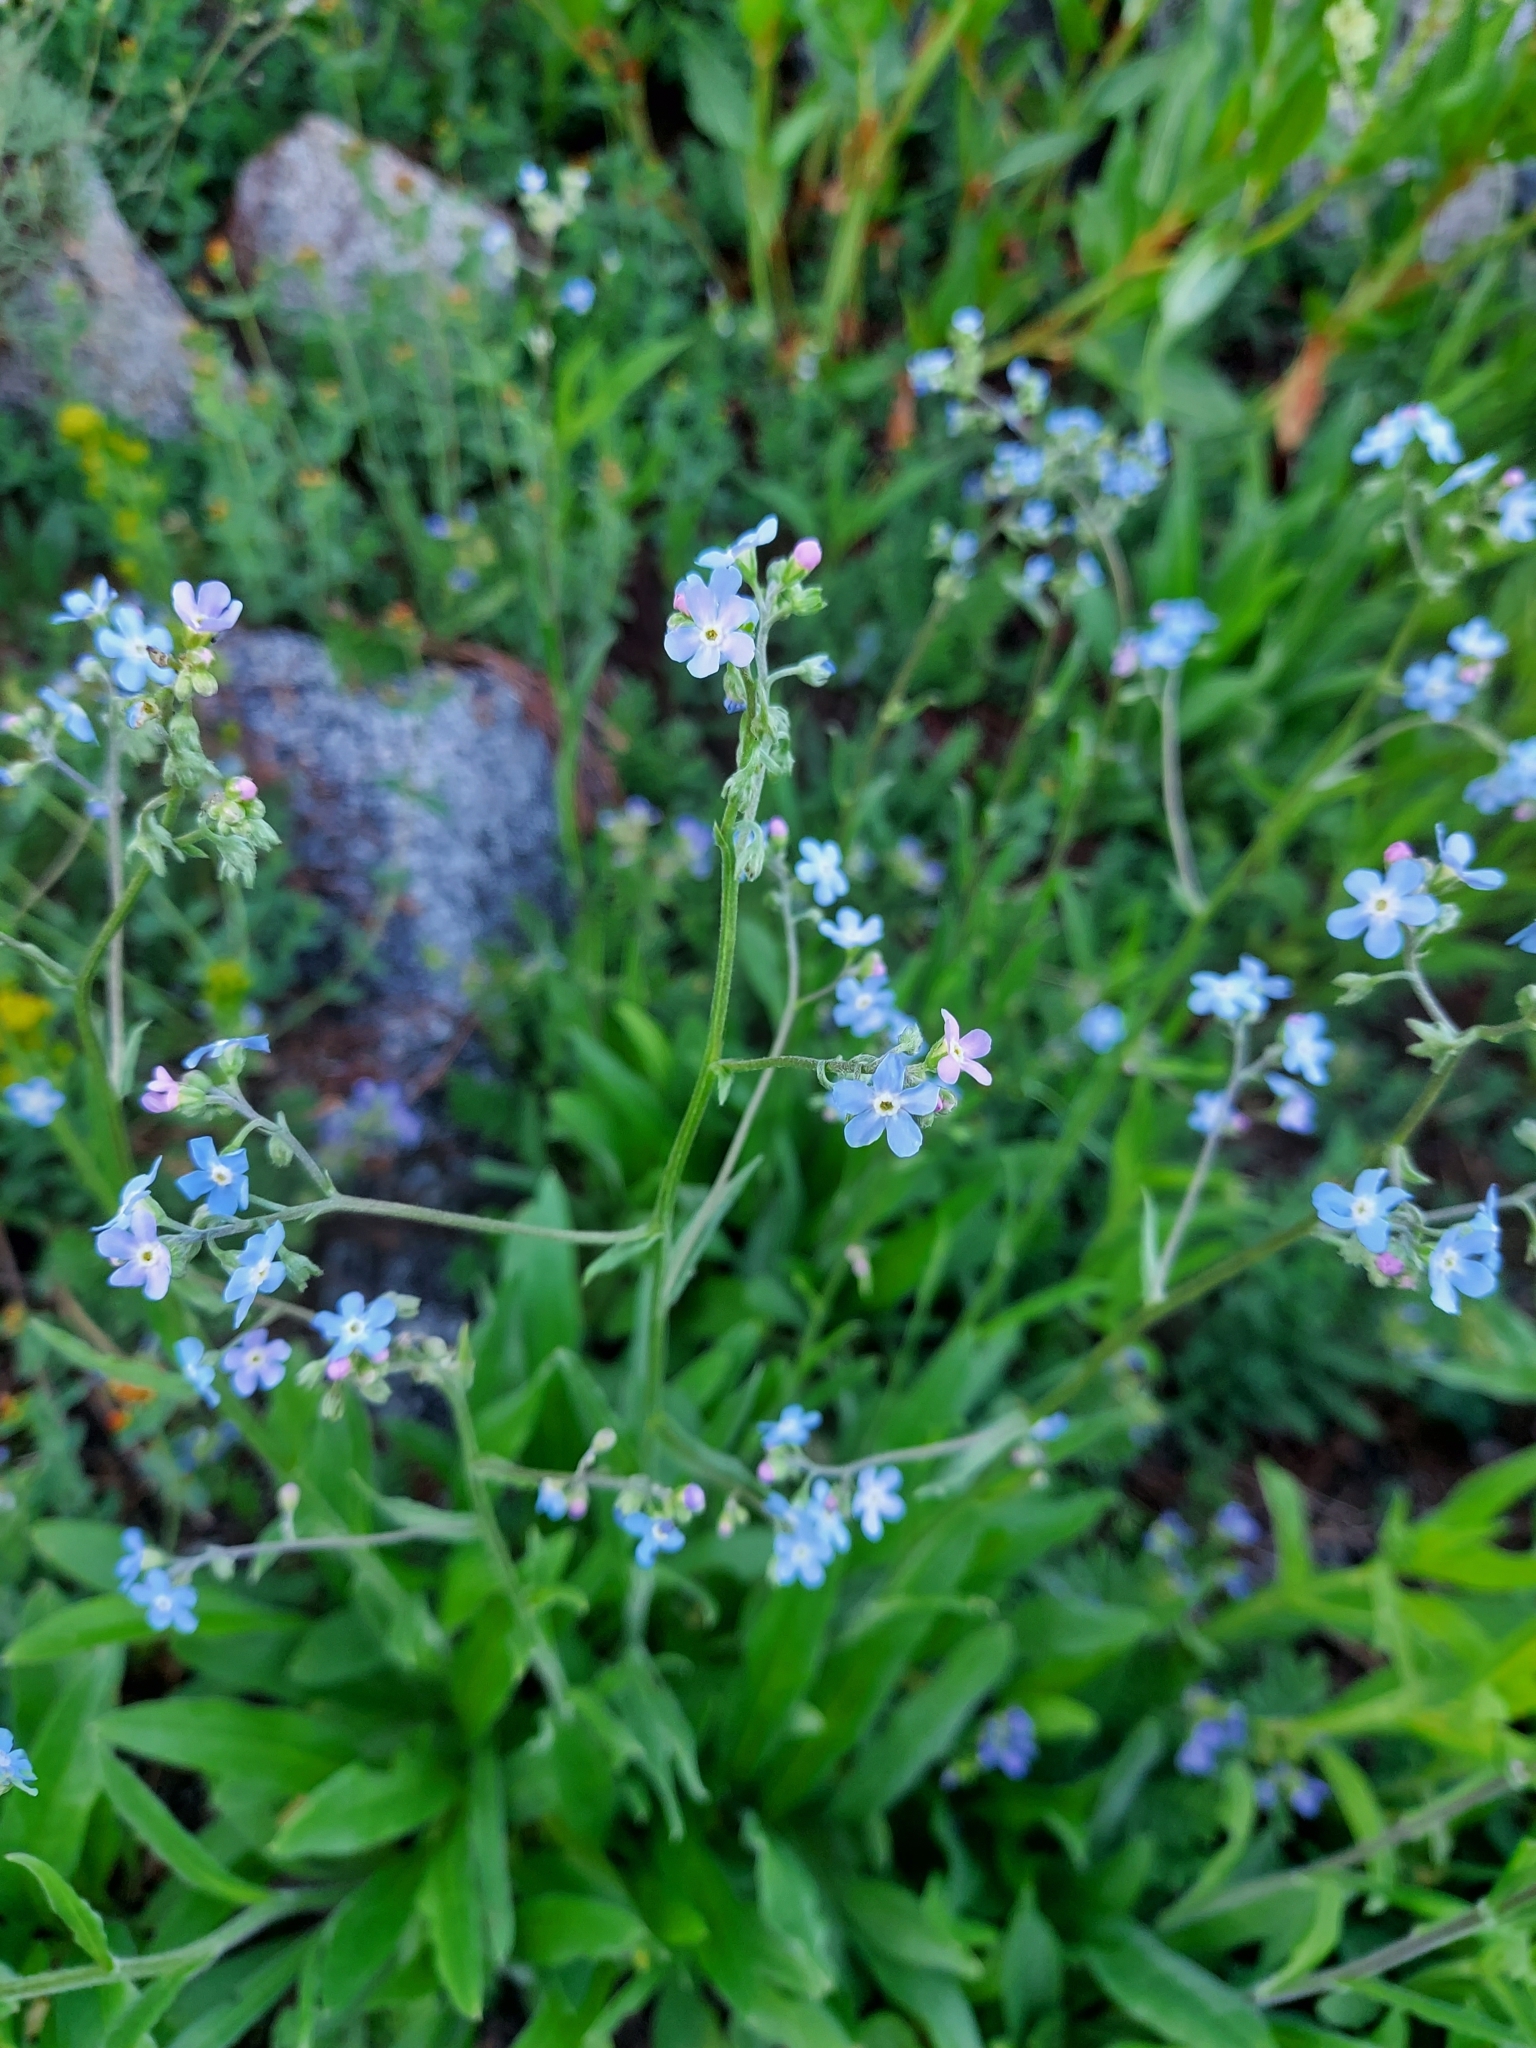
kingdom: Plantae
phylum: Tracheophyta
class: Magnoliopsida
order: Boraginales
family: Boraginaceae
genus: Hackelia
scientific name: Hackelia micrantha
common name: Meadow stickseed
